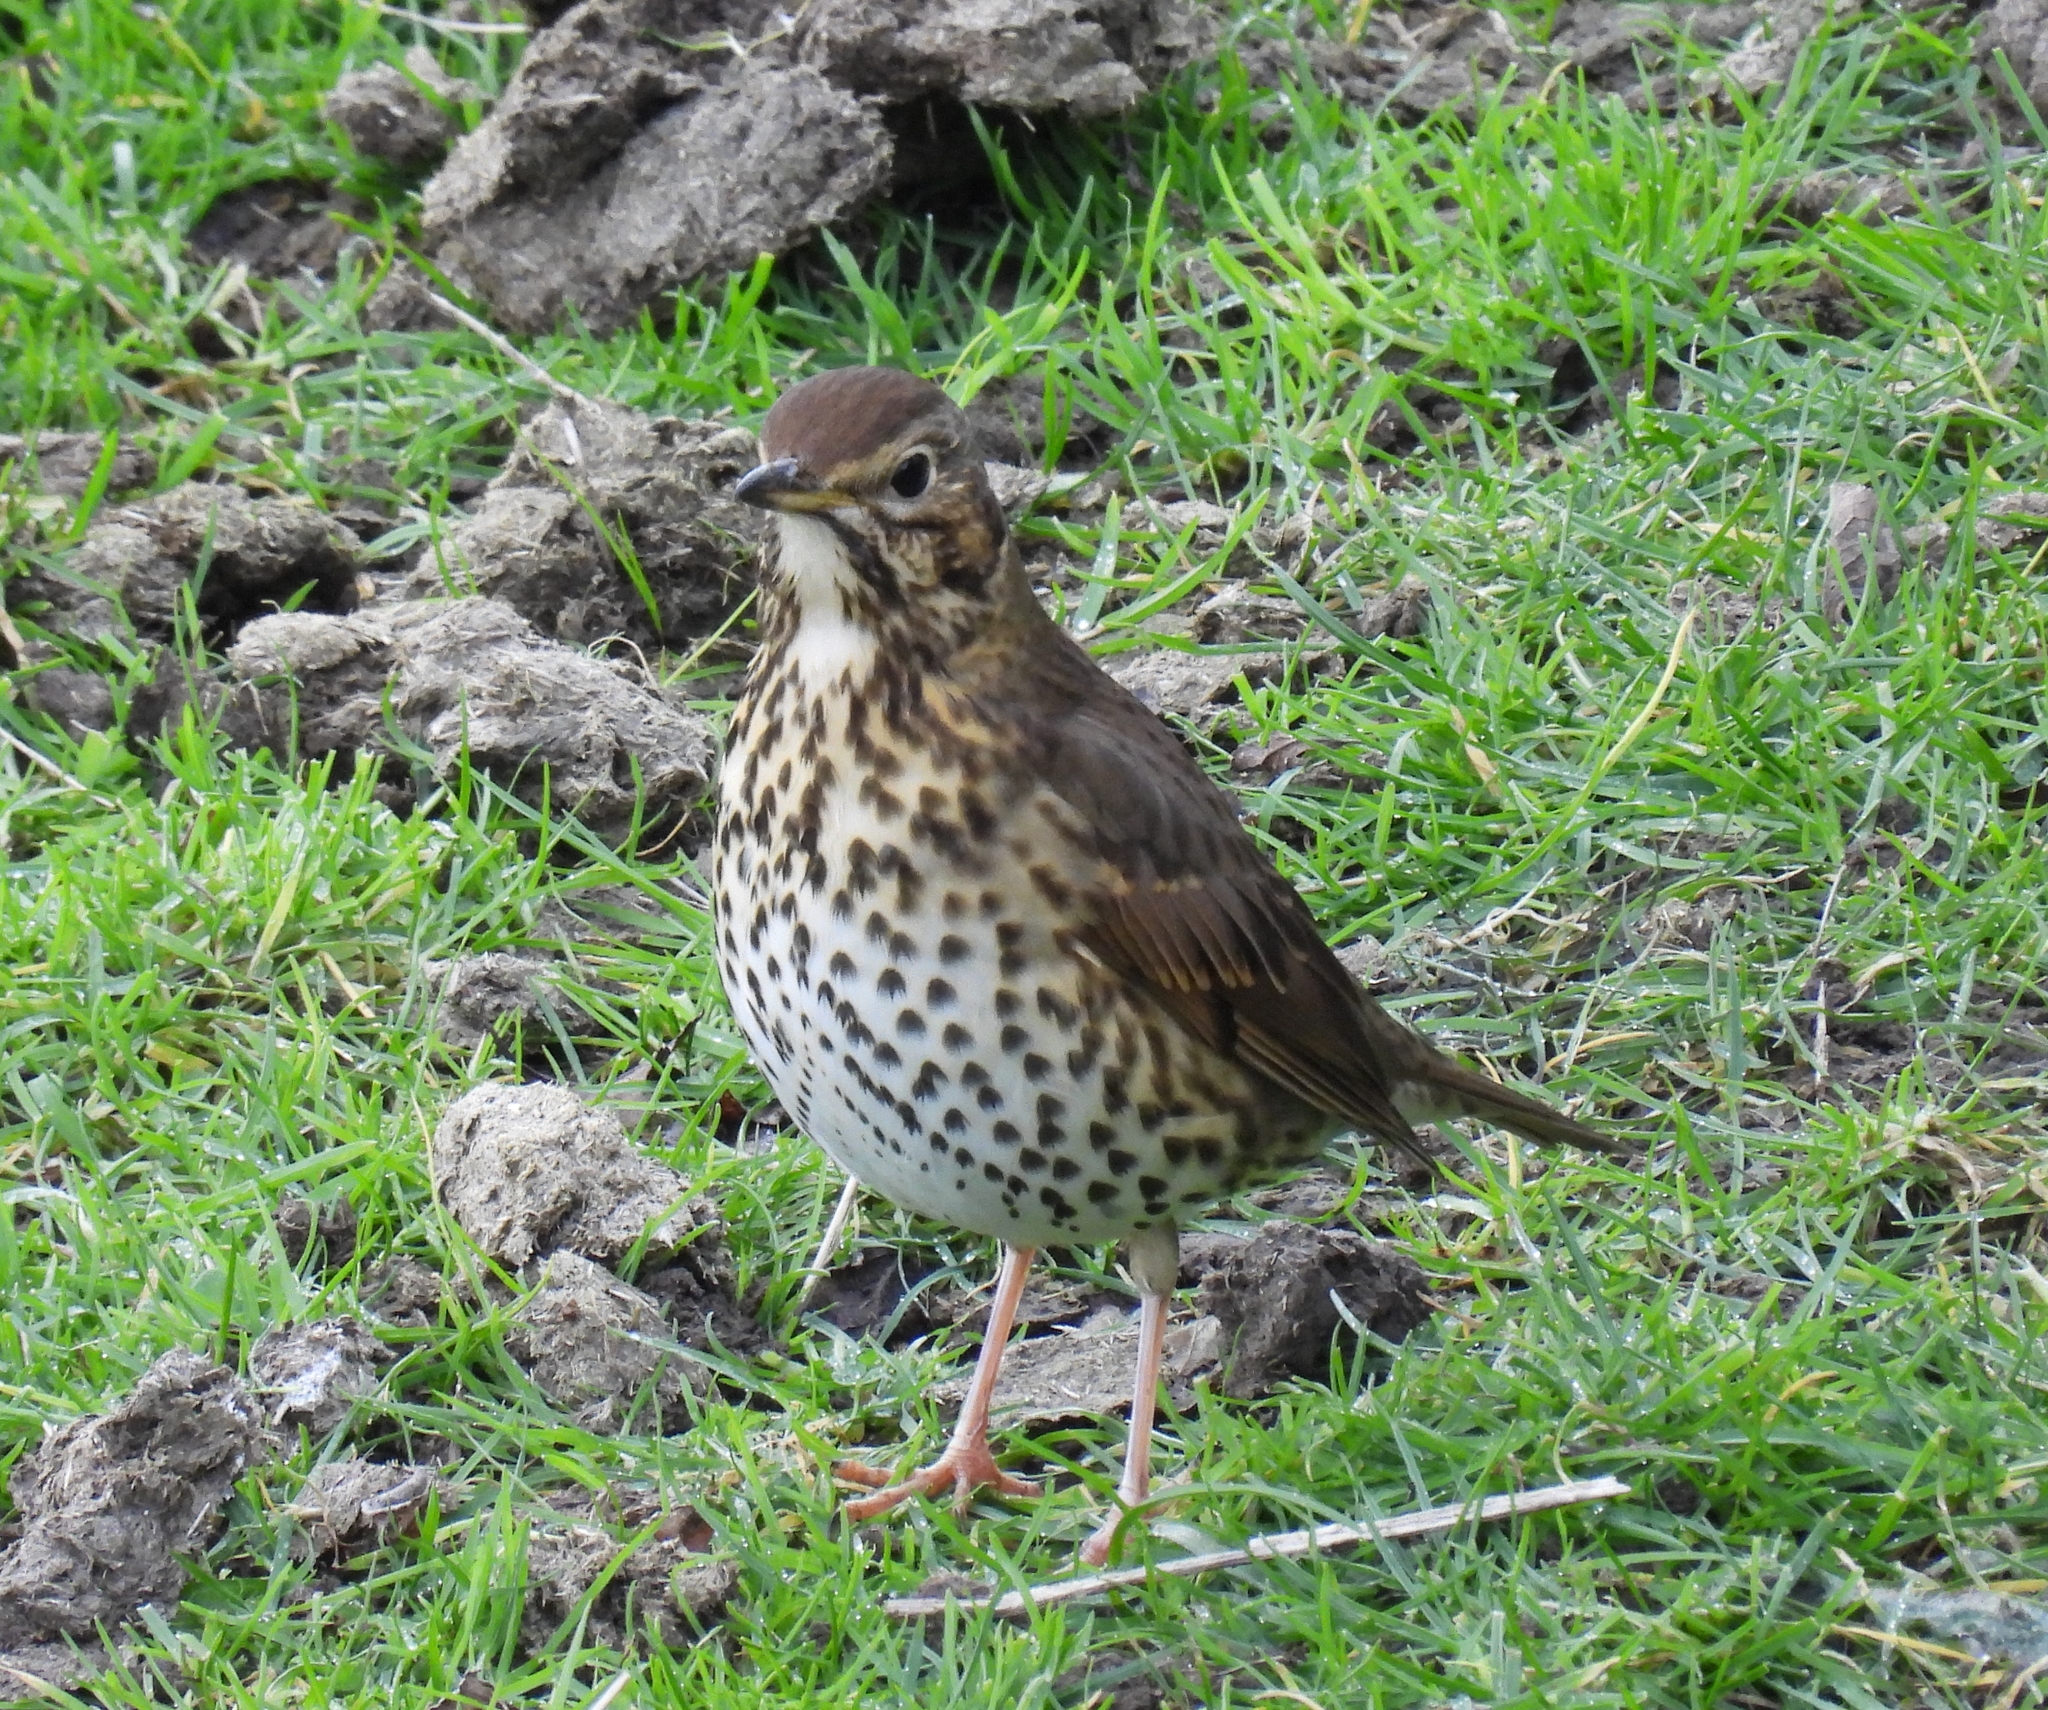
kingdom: Animalia
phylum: Chordata
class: Aves
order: Passeriformes
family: Turdidae
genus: Turdus
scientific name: Turdus philomelos
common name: Song thrush
